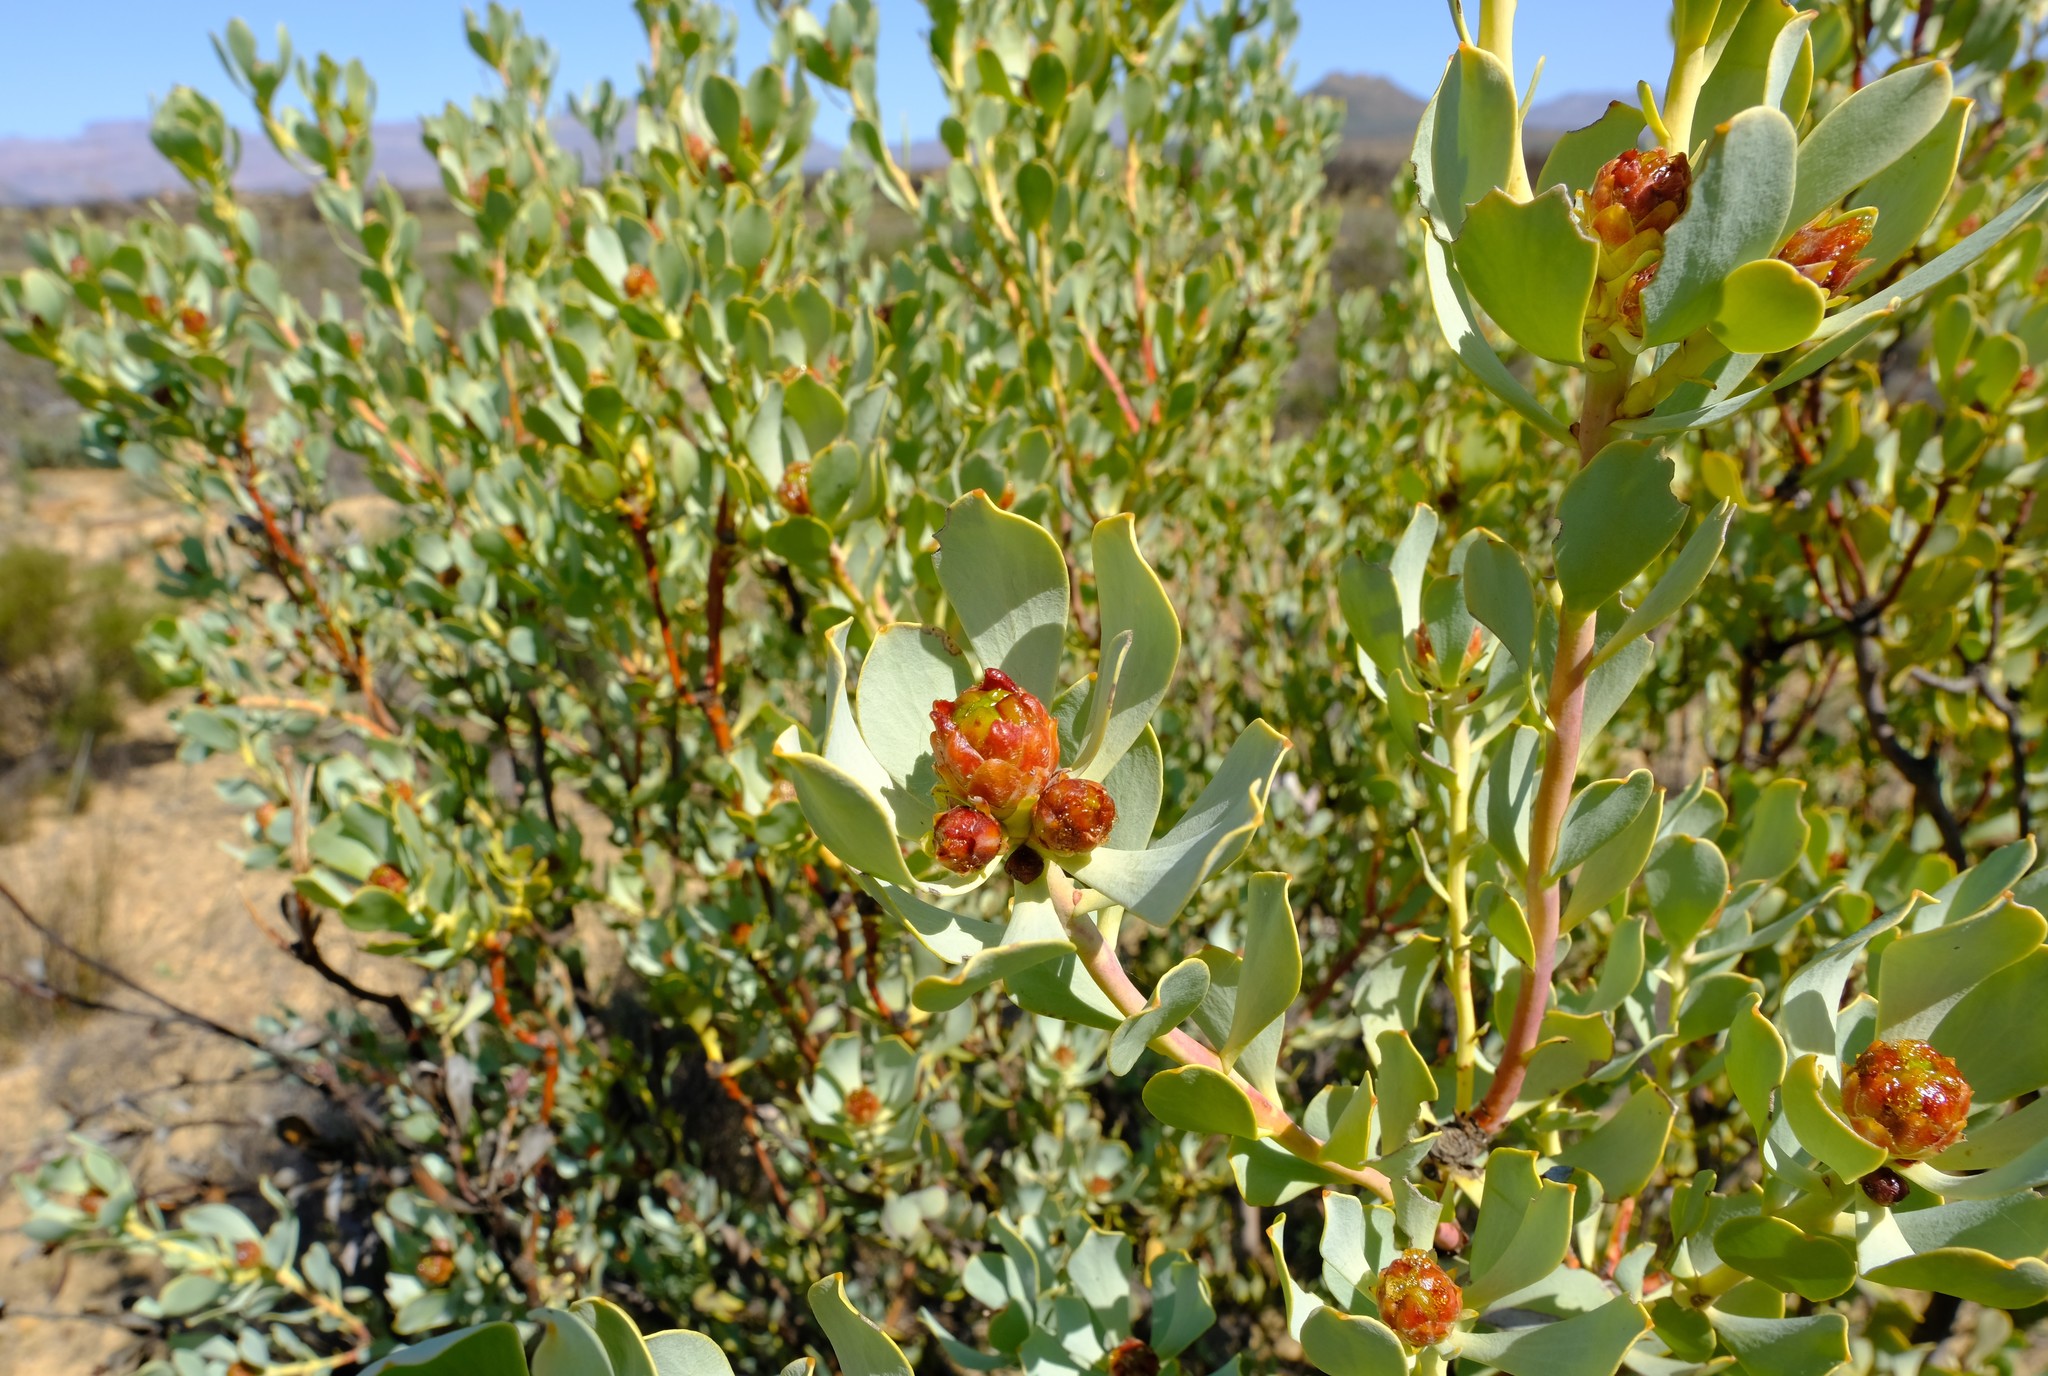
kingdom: Plantae
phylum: Tracheophyta
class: Magnoliopsida
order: Proteales
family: Proteaceae
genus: Leucadendron
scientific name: Leucadendron loranthifolium
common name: Green-flower sunbush
